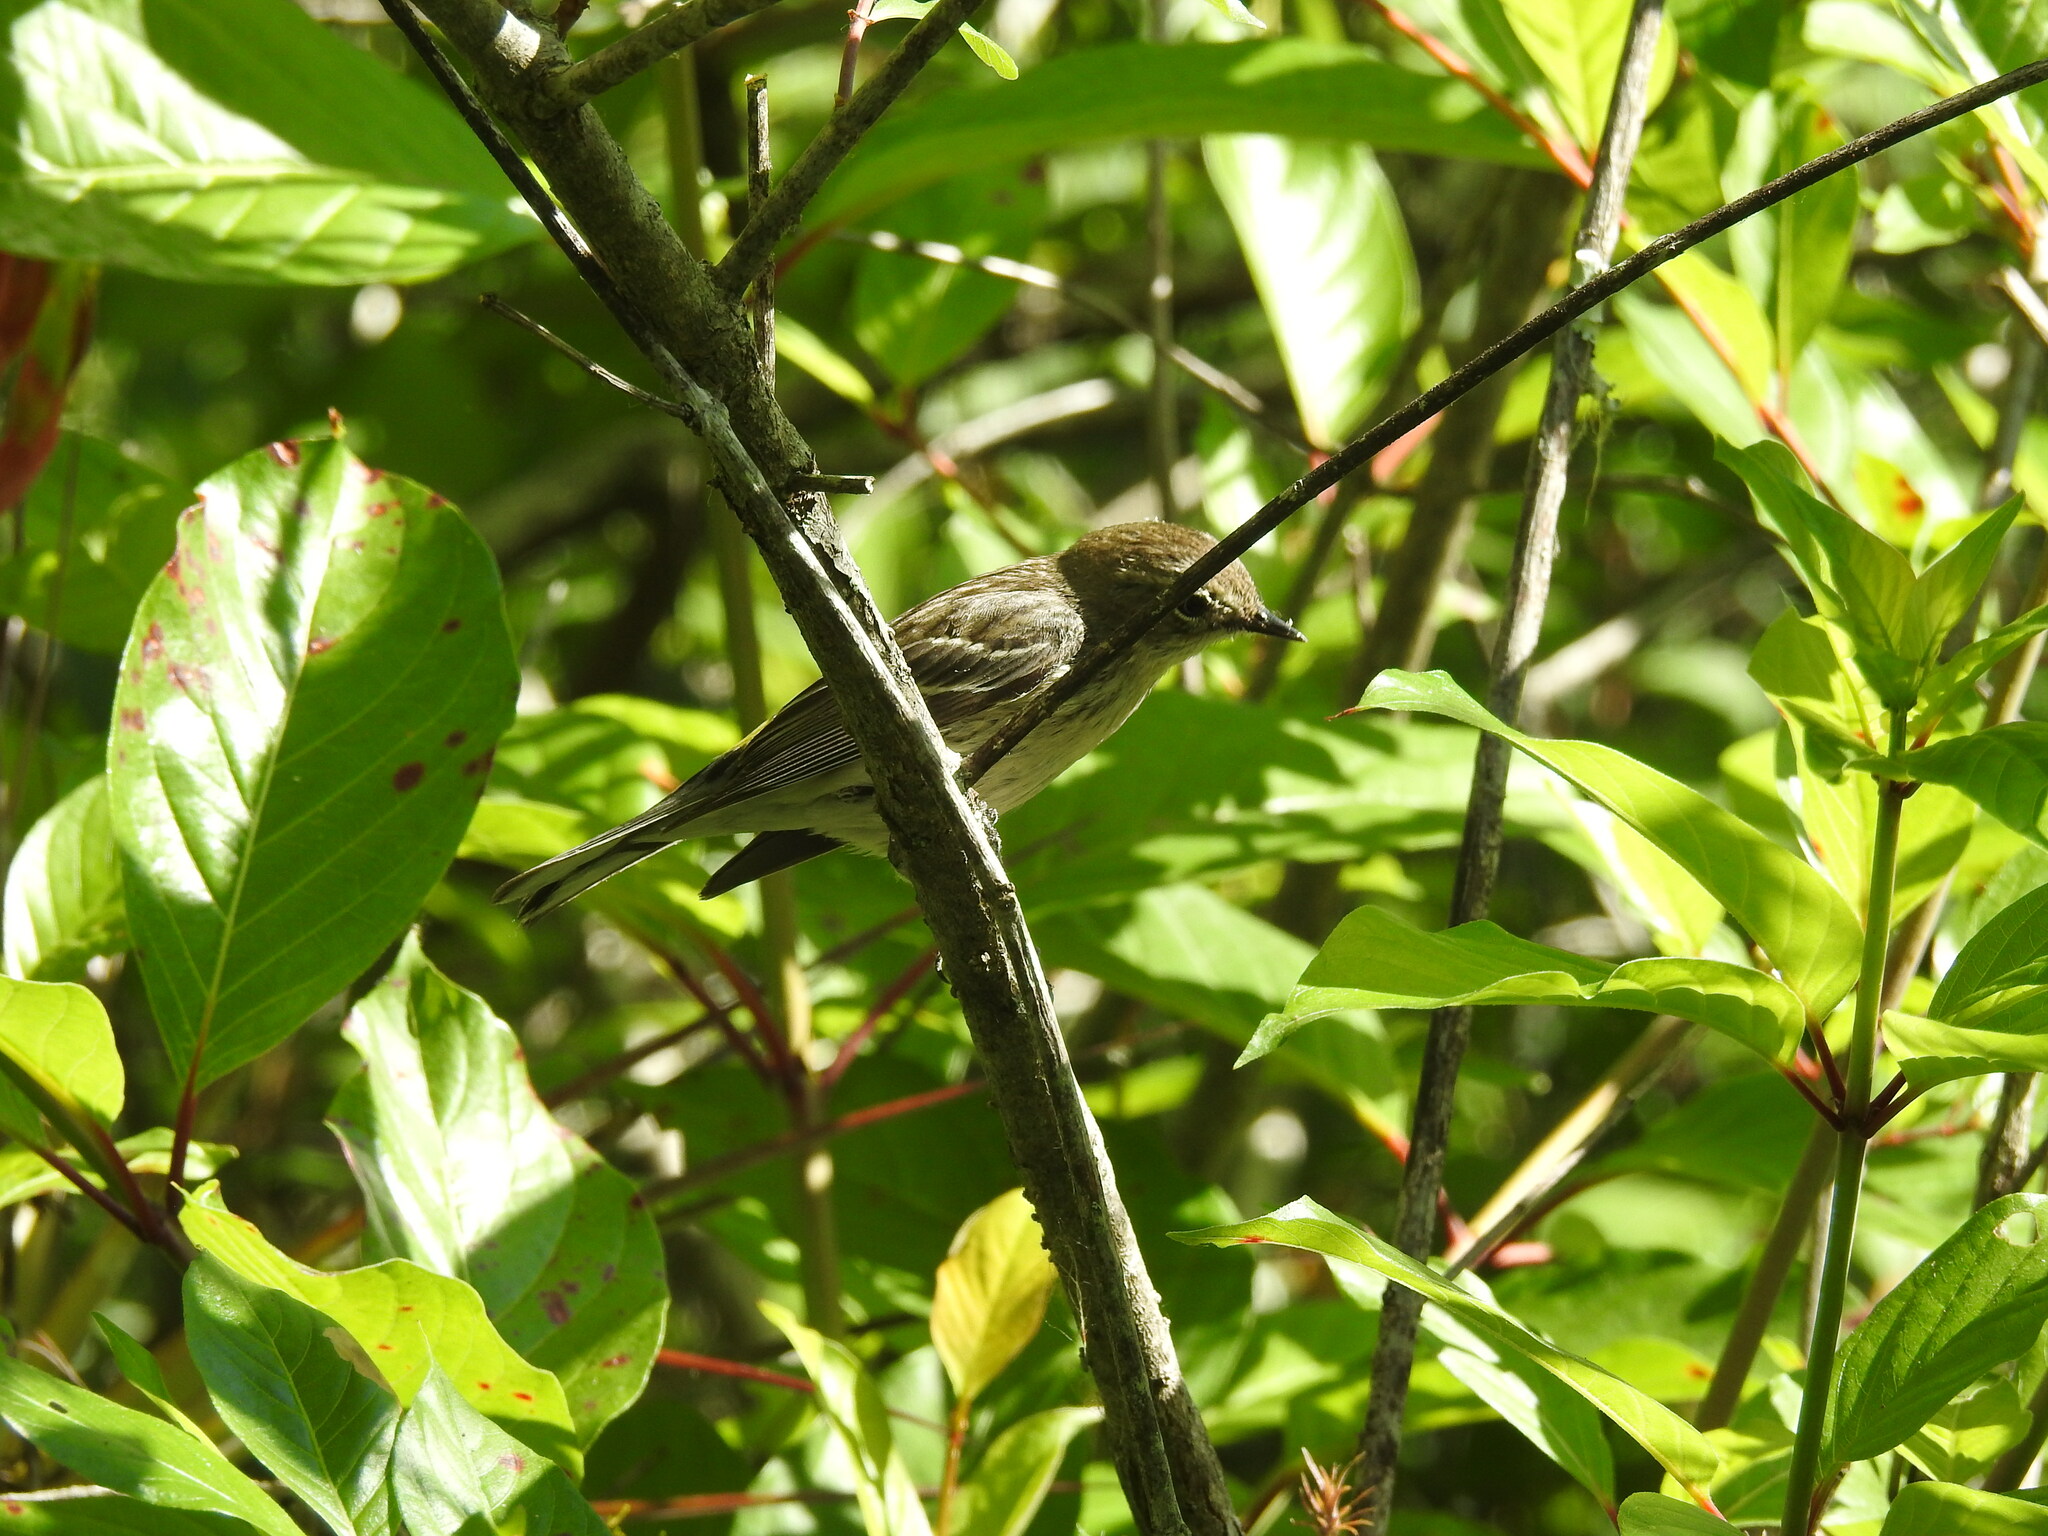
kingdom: Animalia
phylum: Chordata
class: Aves
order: Passeriformes
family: Parulidae
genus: Setophaga
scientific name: Setophaga coronata
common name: Myrtle warbler
